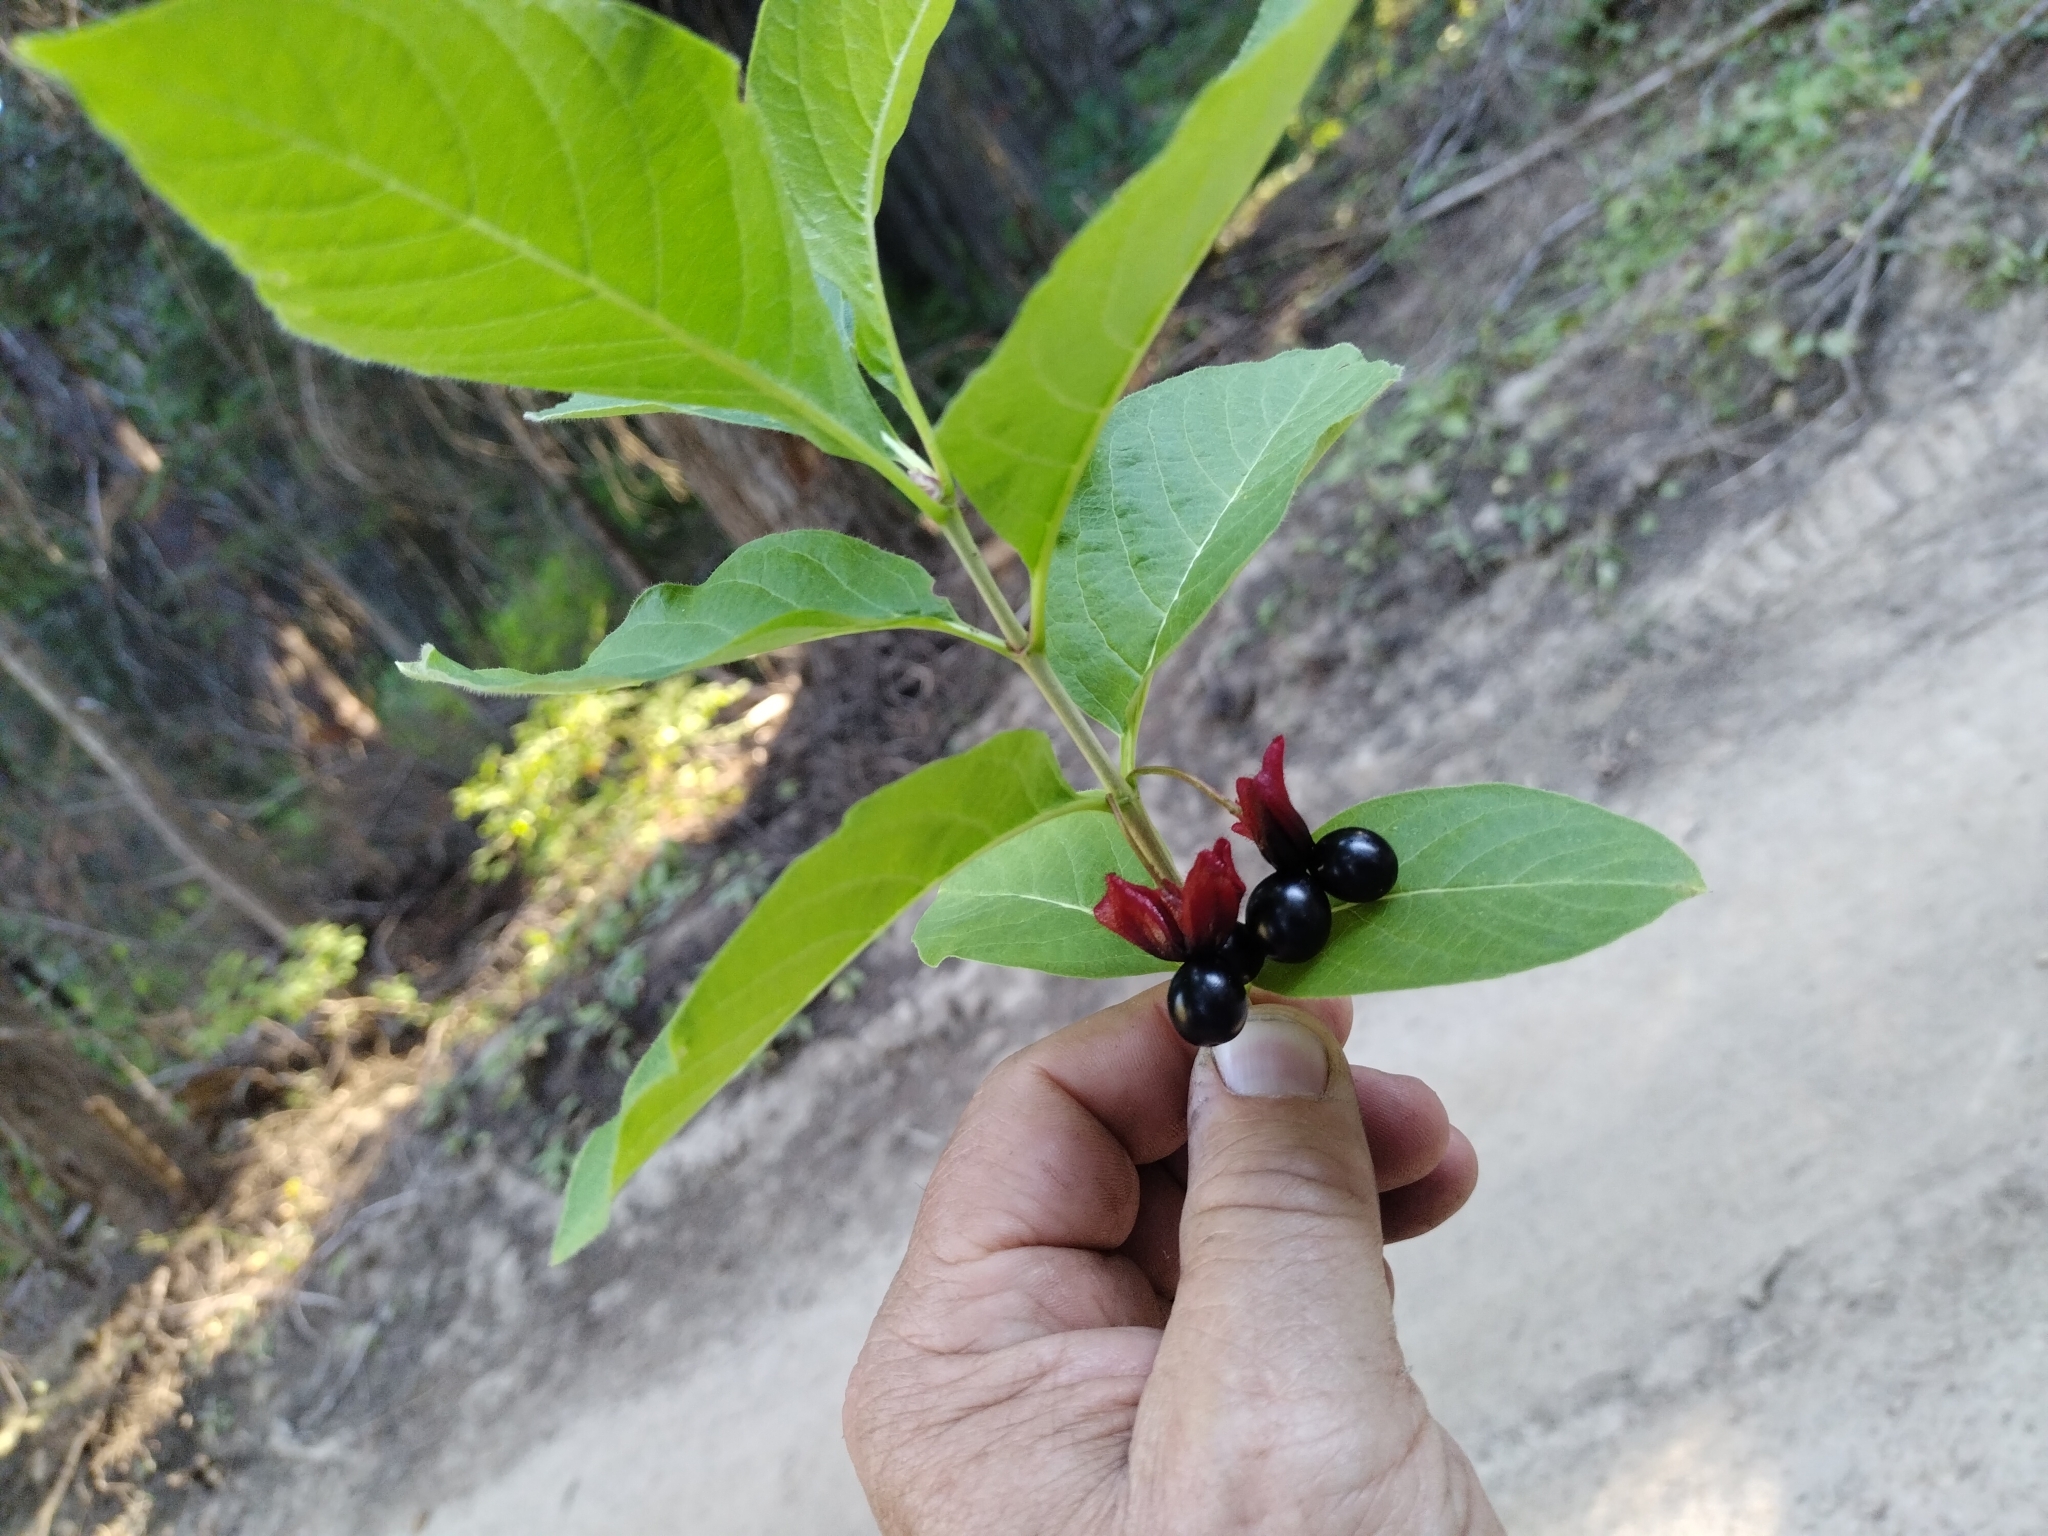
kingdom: Plantae
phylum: Tracheophyta
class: Magnoliopsida
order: Dipsacales
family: Caprifoliaceae
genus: Lonicera
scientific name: Lonicera involucrata
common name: Californian honeysuckle
